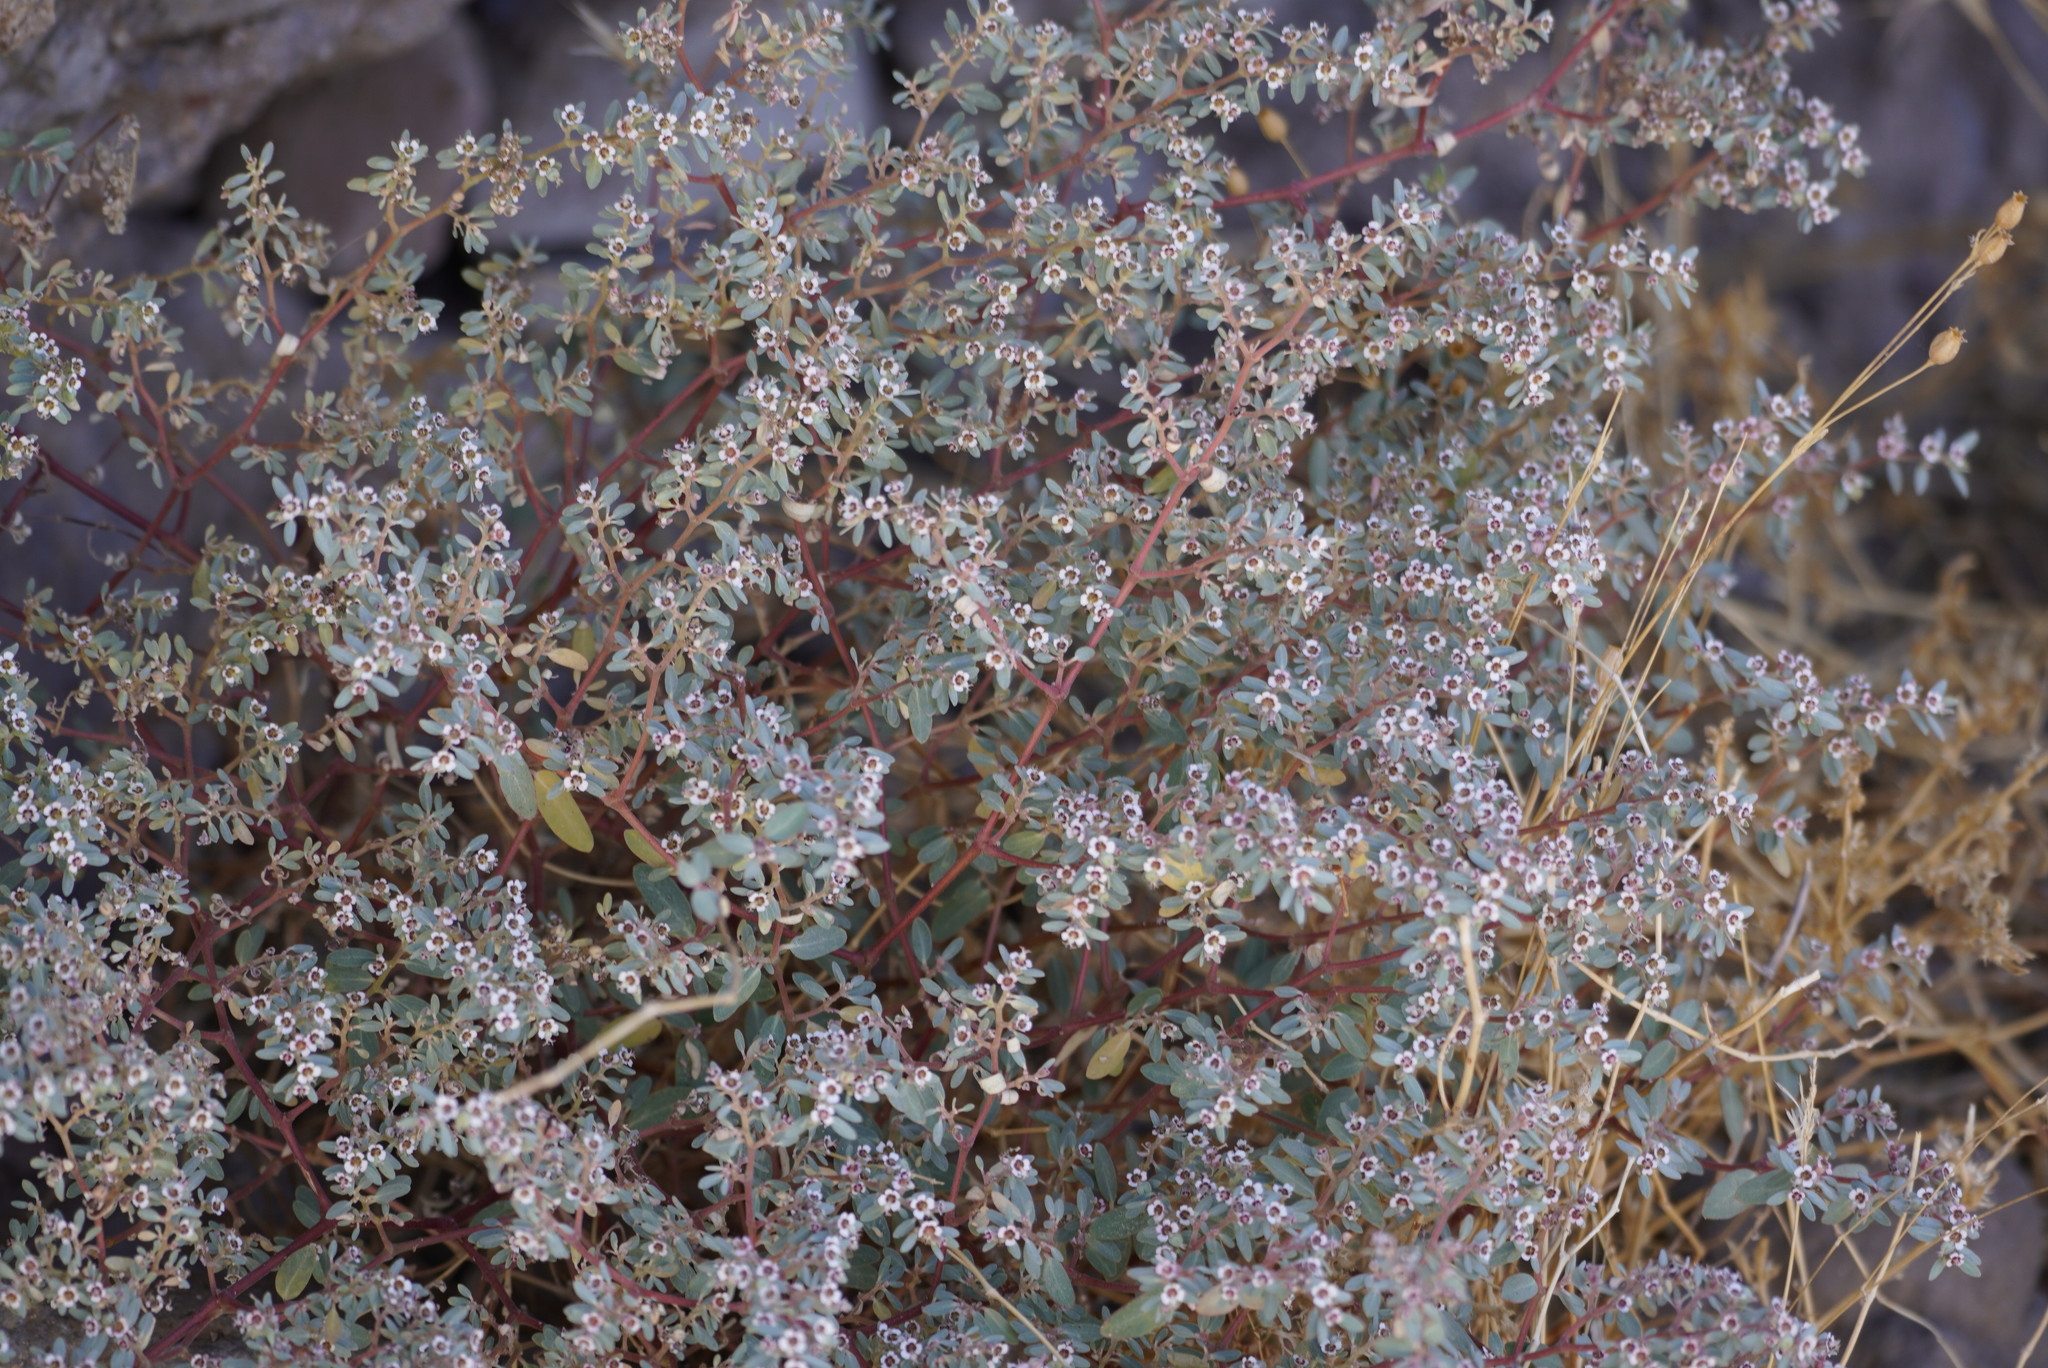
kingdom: Plantae
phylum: Tracheophyta
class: Magnoliopsida
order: Malpighiales
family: Euphorbiaceae
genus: Euphorbia
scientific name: Euphorbia pediculifera
